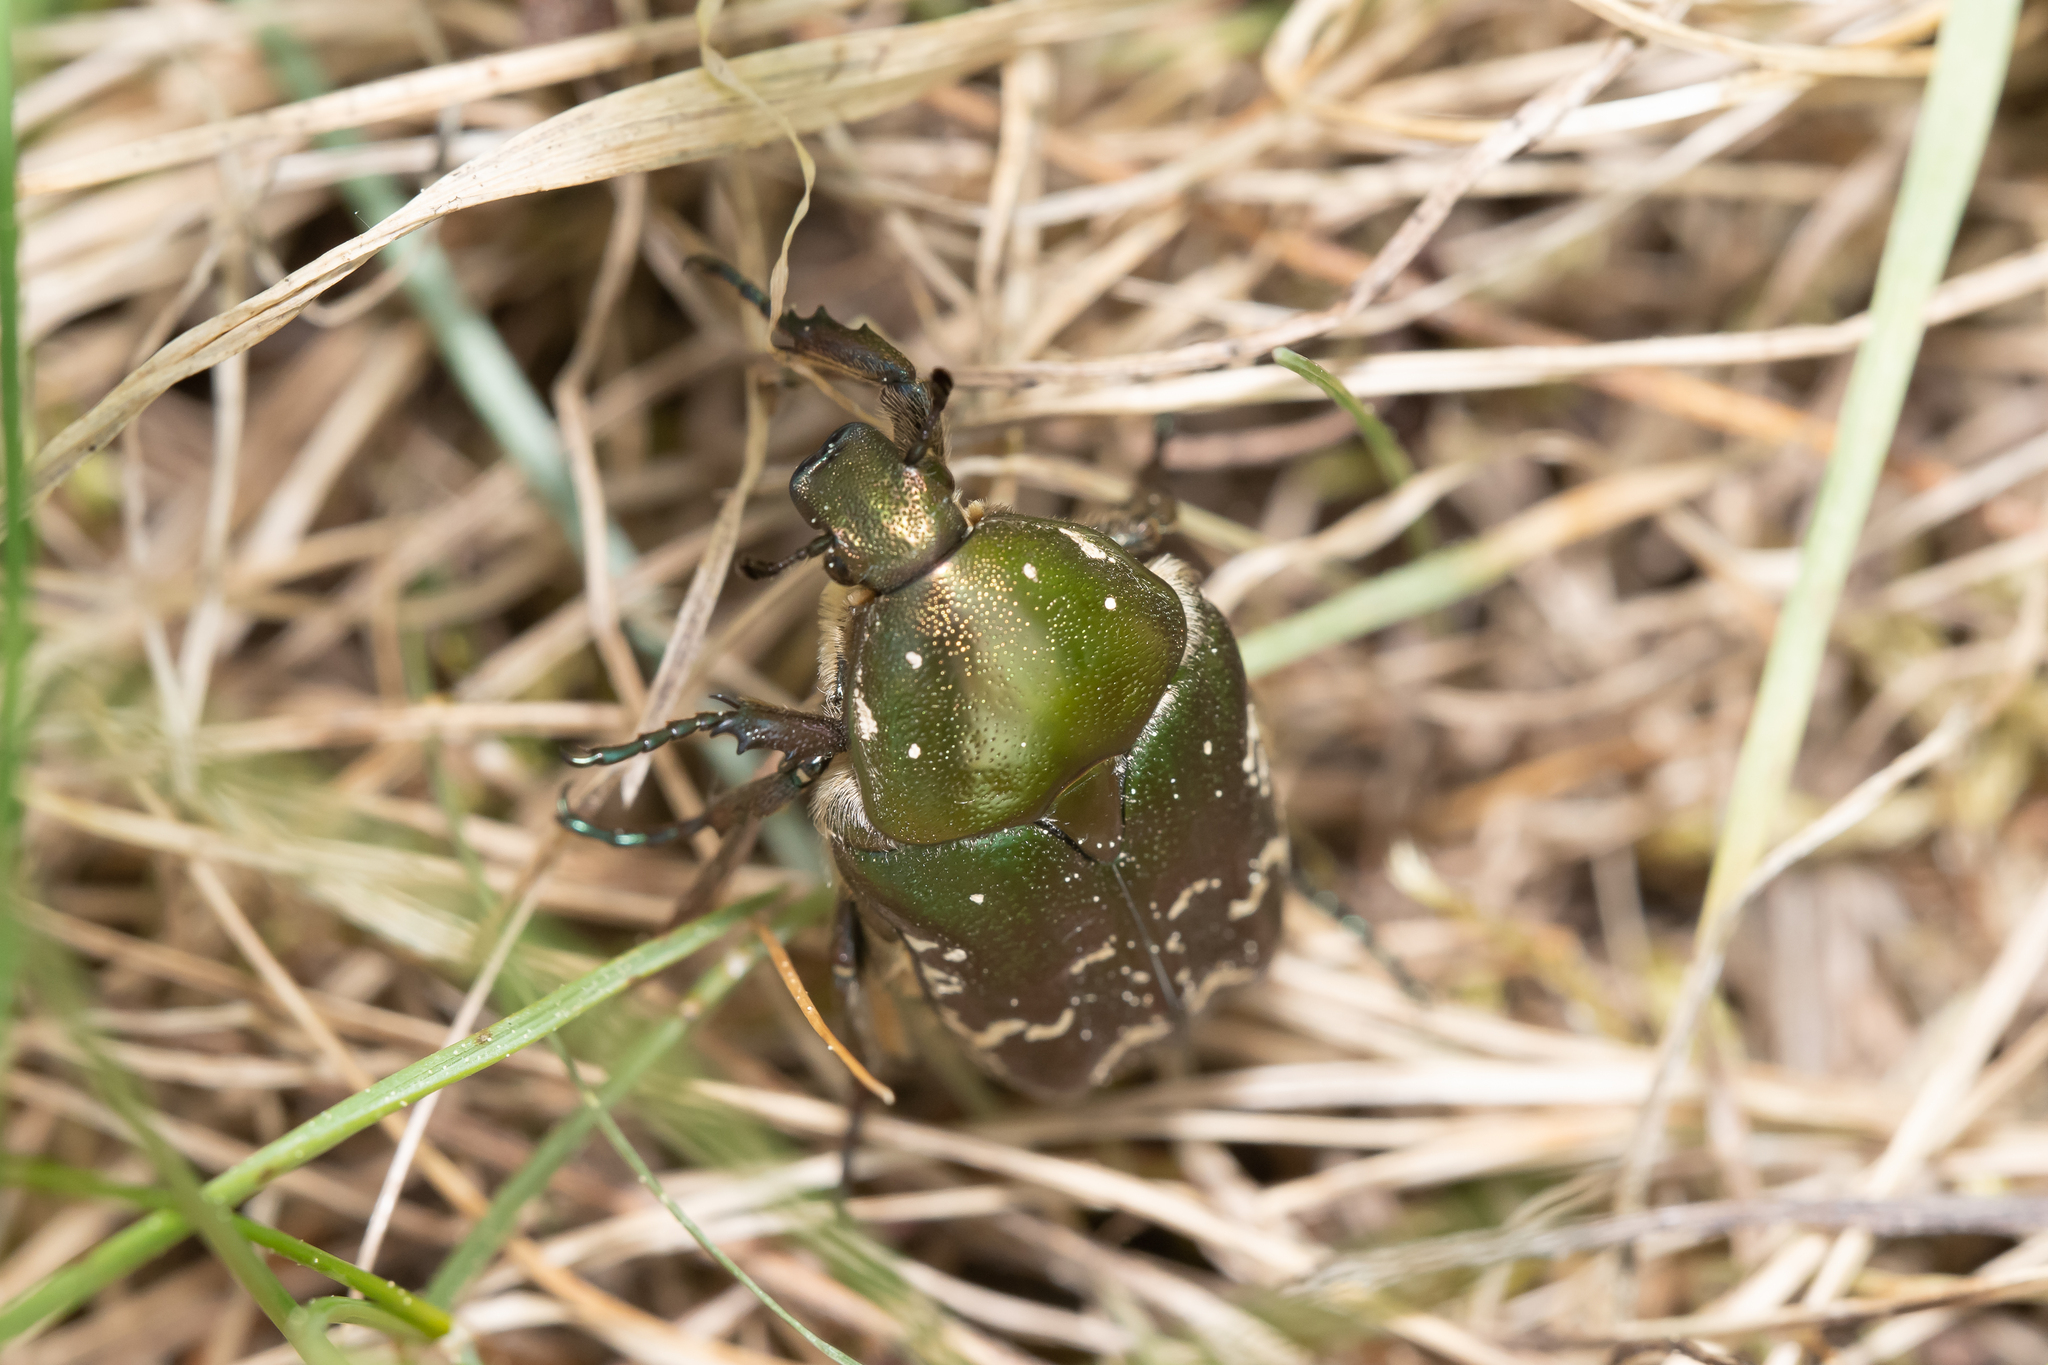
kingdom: Animalia
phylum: Arthropoda
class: Insecta
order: Coleoptera
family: Scarabaeidae
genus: Protaetia
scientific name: Protaetia cuprea
